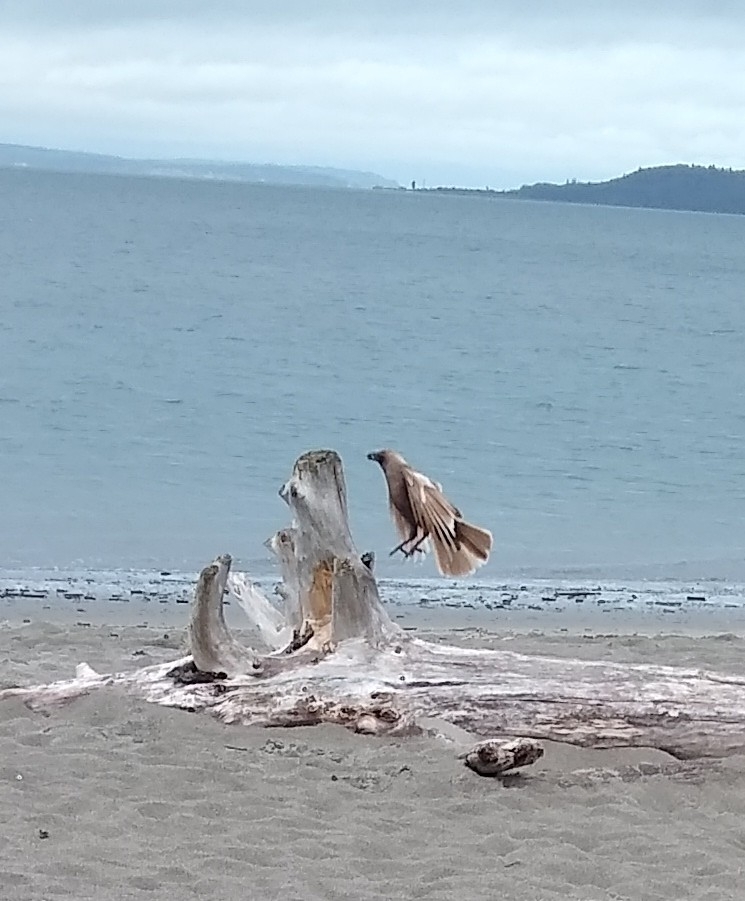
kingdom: Animalia
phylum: Chordata
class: Aves
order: Passeriformes
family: Corvidae
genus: Corvus
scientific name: Corvus brachyrhynchos
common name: American crow
